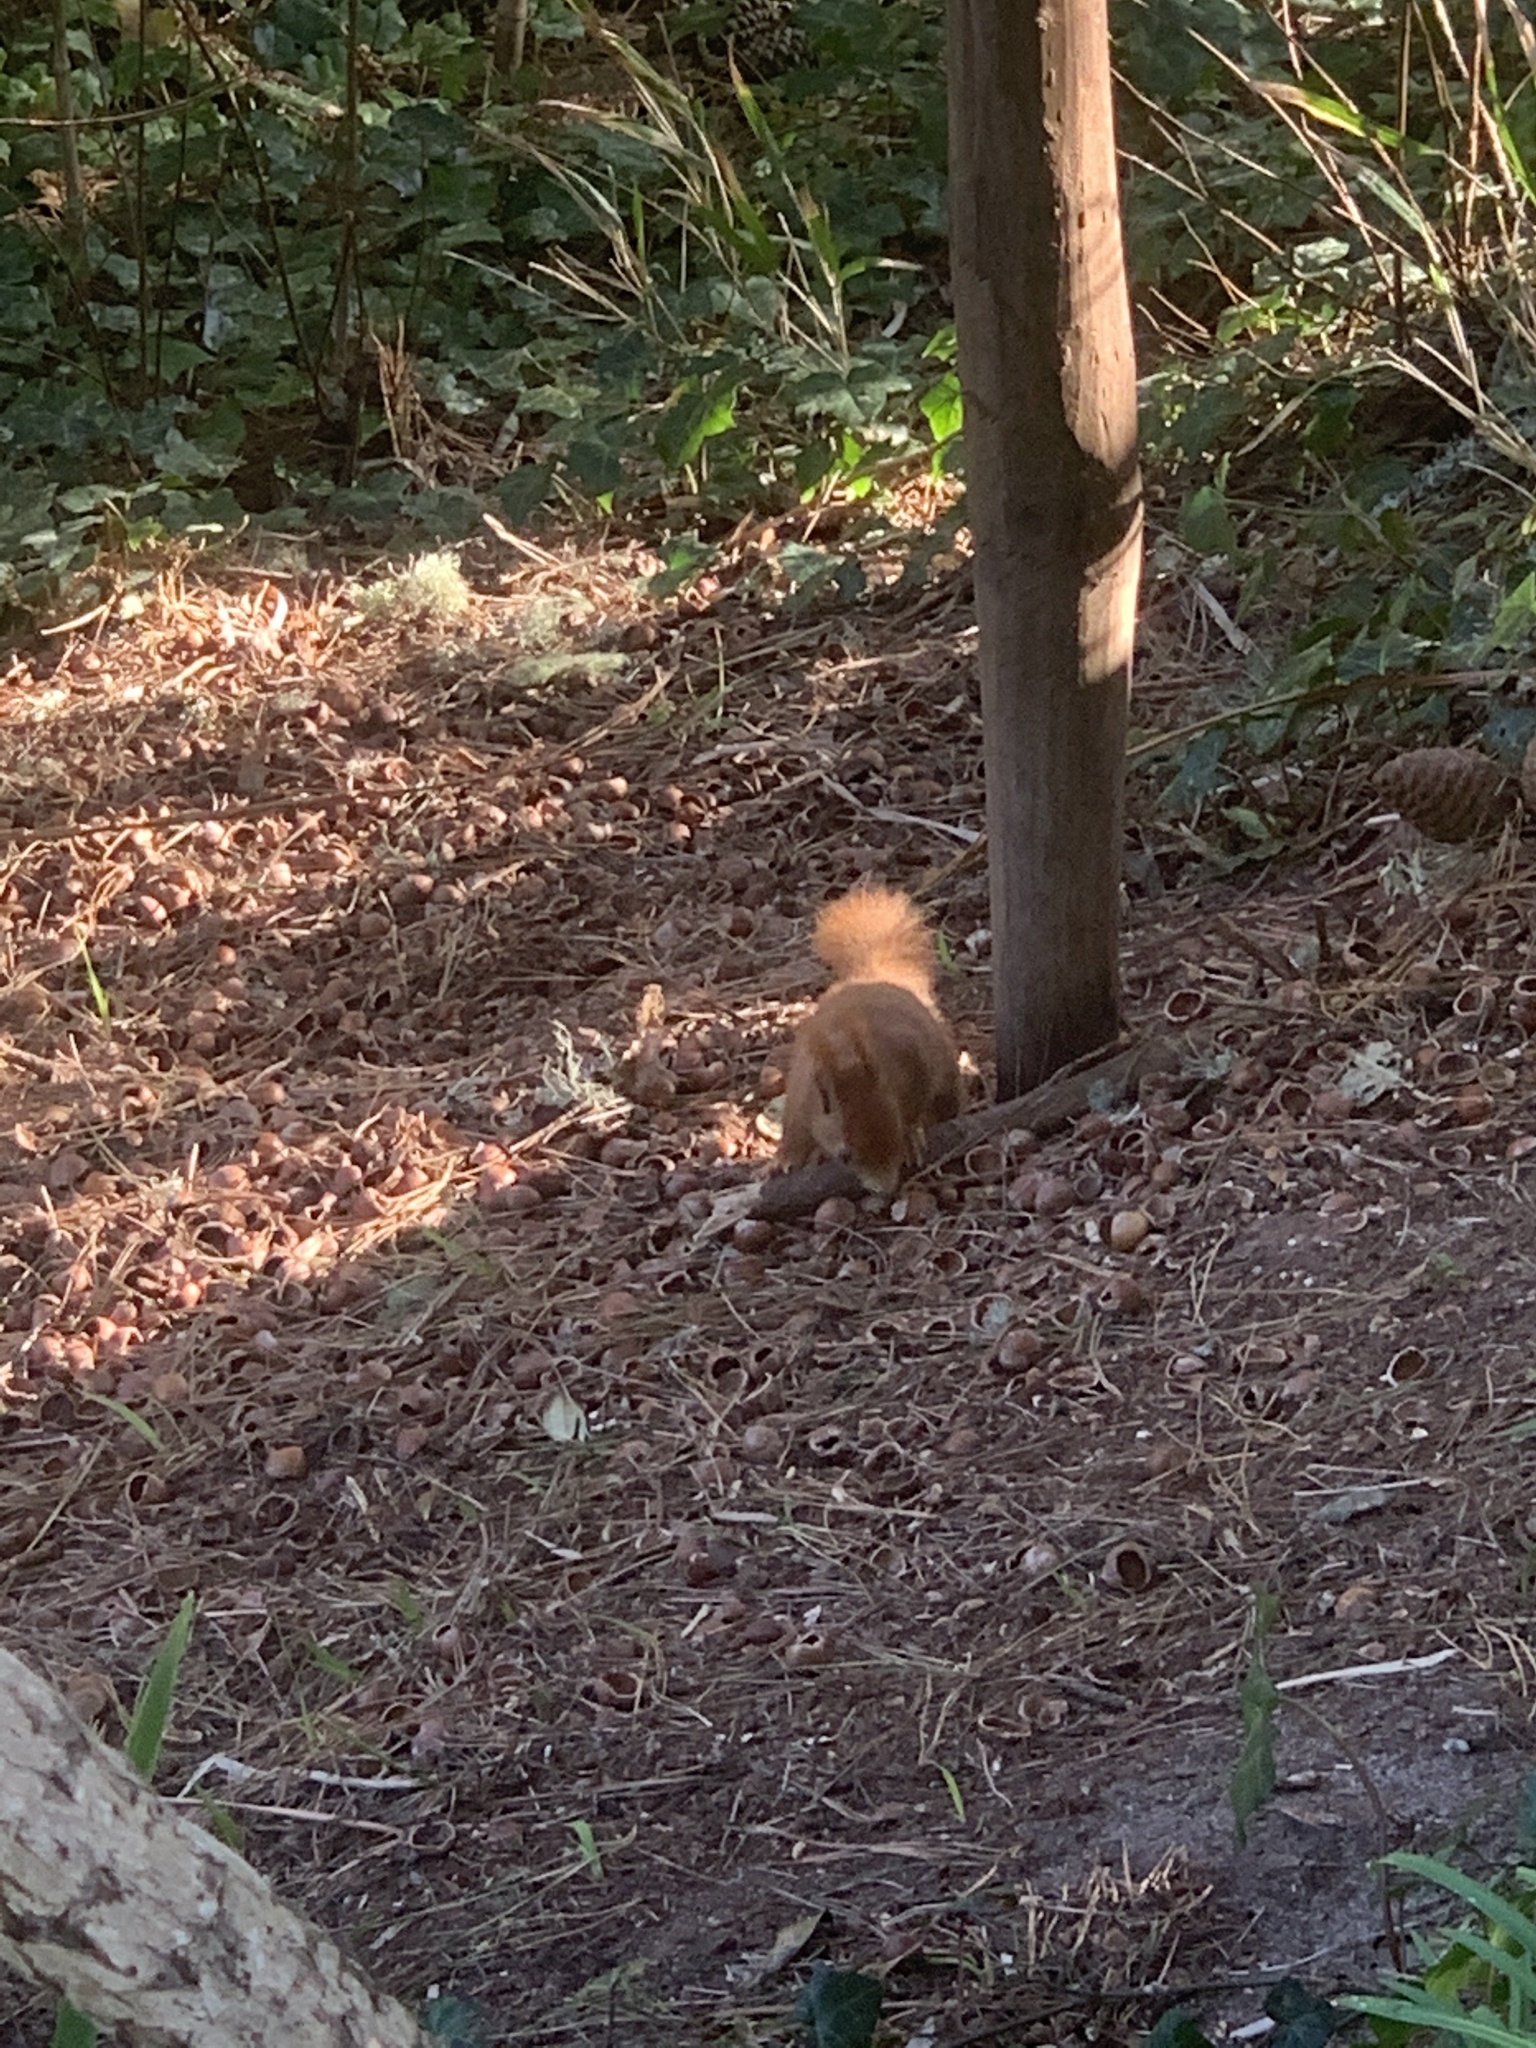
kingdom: Animalia
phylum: Chordata
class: Mammalia
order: Rodentia
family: Sciuridae
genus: Sciurus
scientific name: Sciurus vulgaris
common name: Eurasian red squirrel
